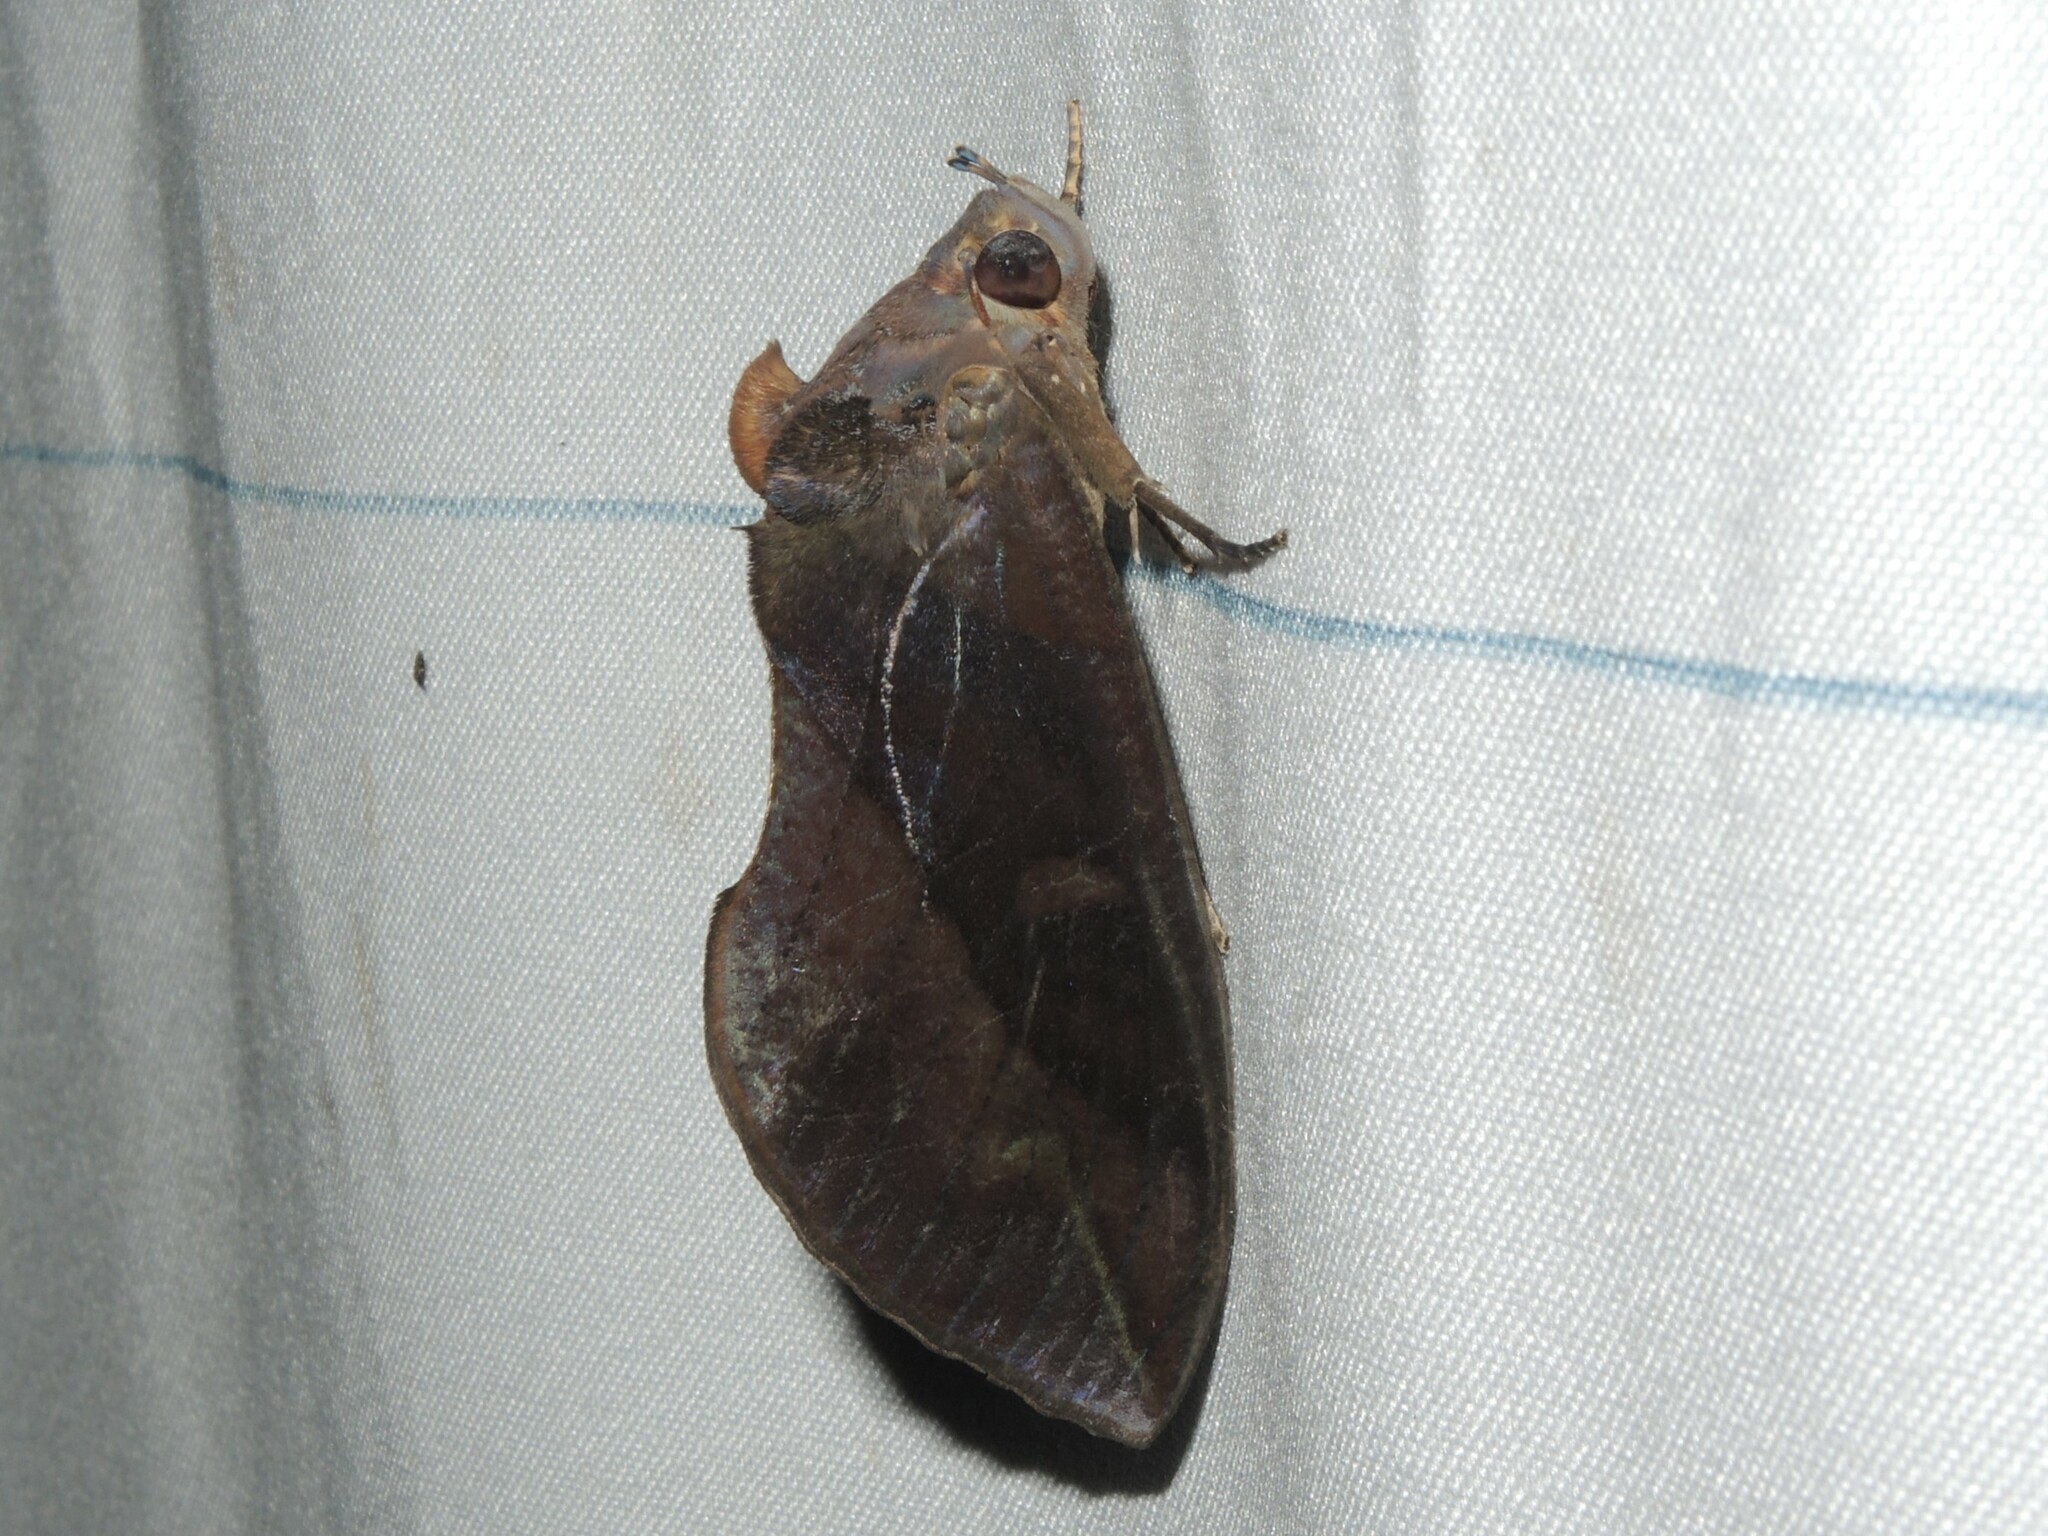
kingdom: Animalia
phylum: Arthropoda
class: Insecta
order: Lepidoptera
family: Erebidae
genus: Eudocima
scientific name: Eudocima phalonia
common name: Wasp
